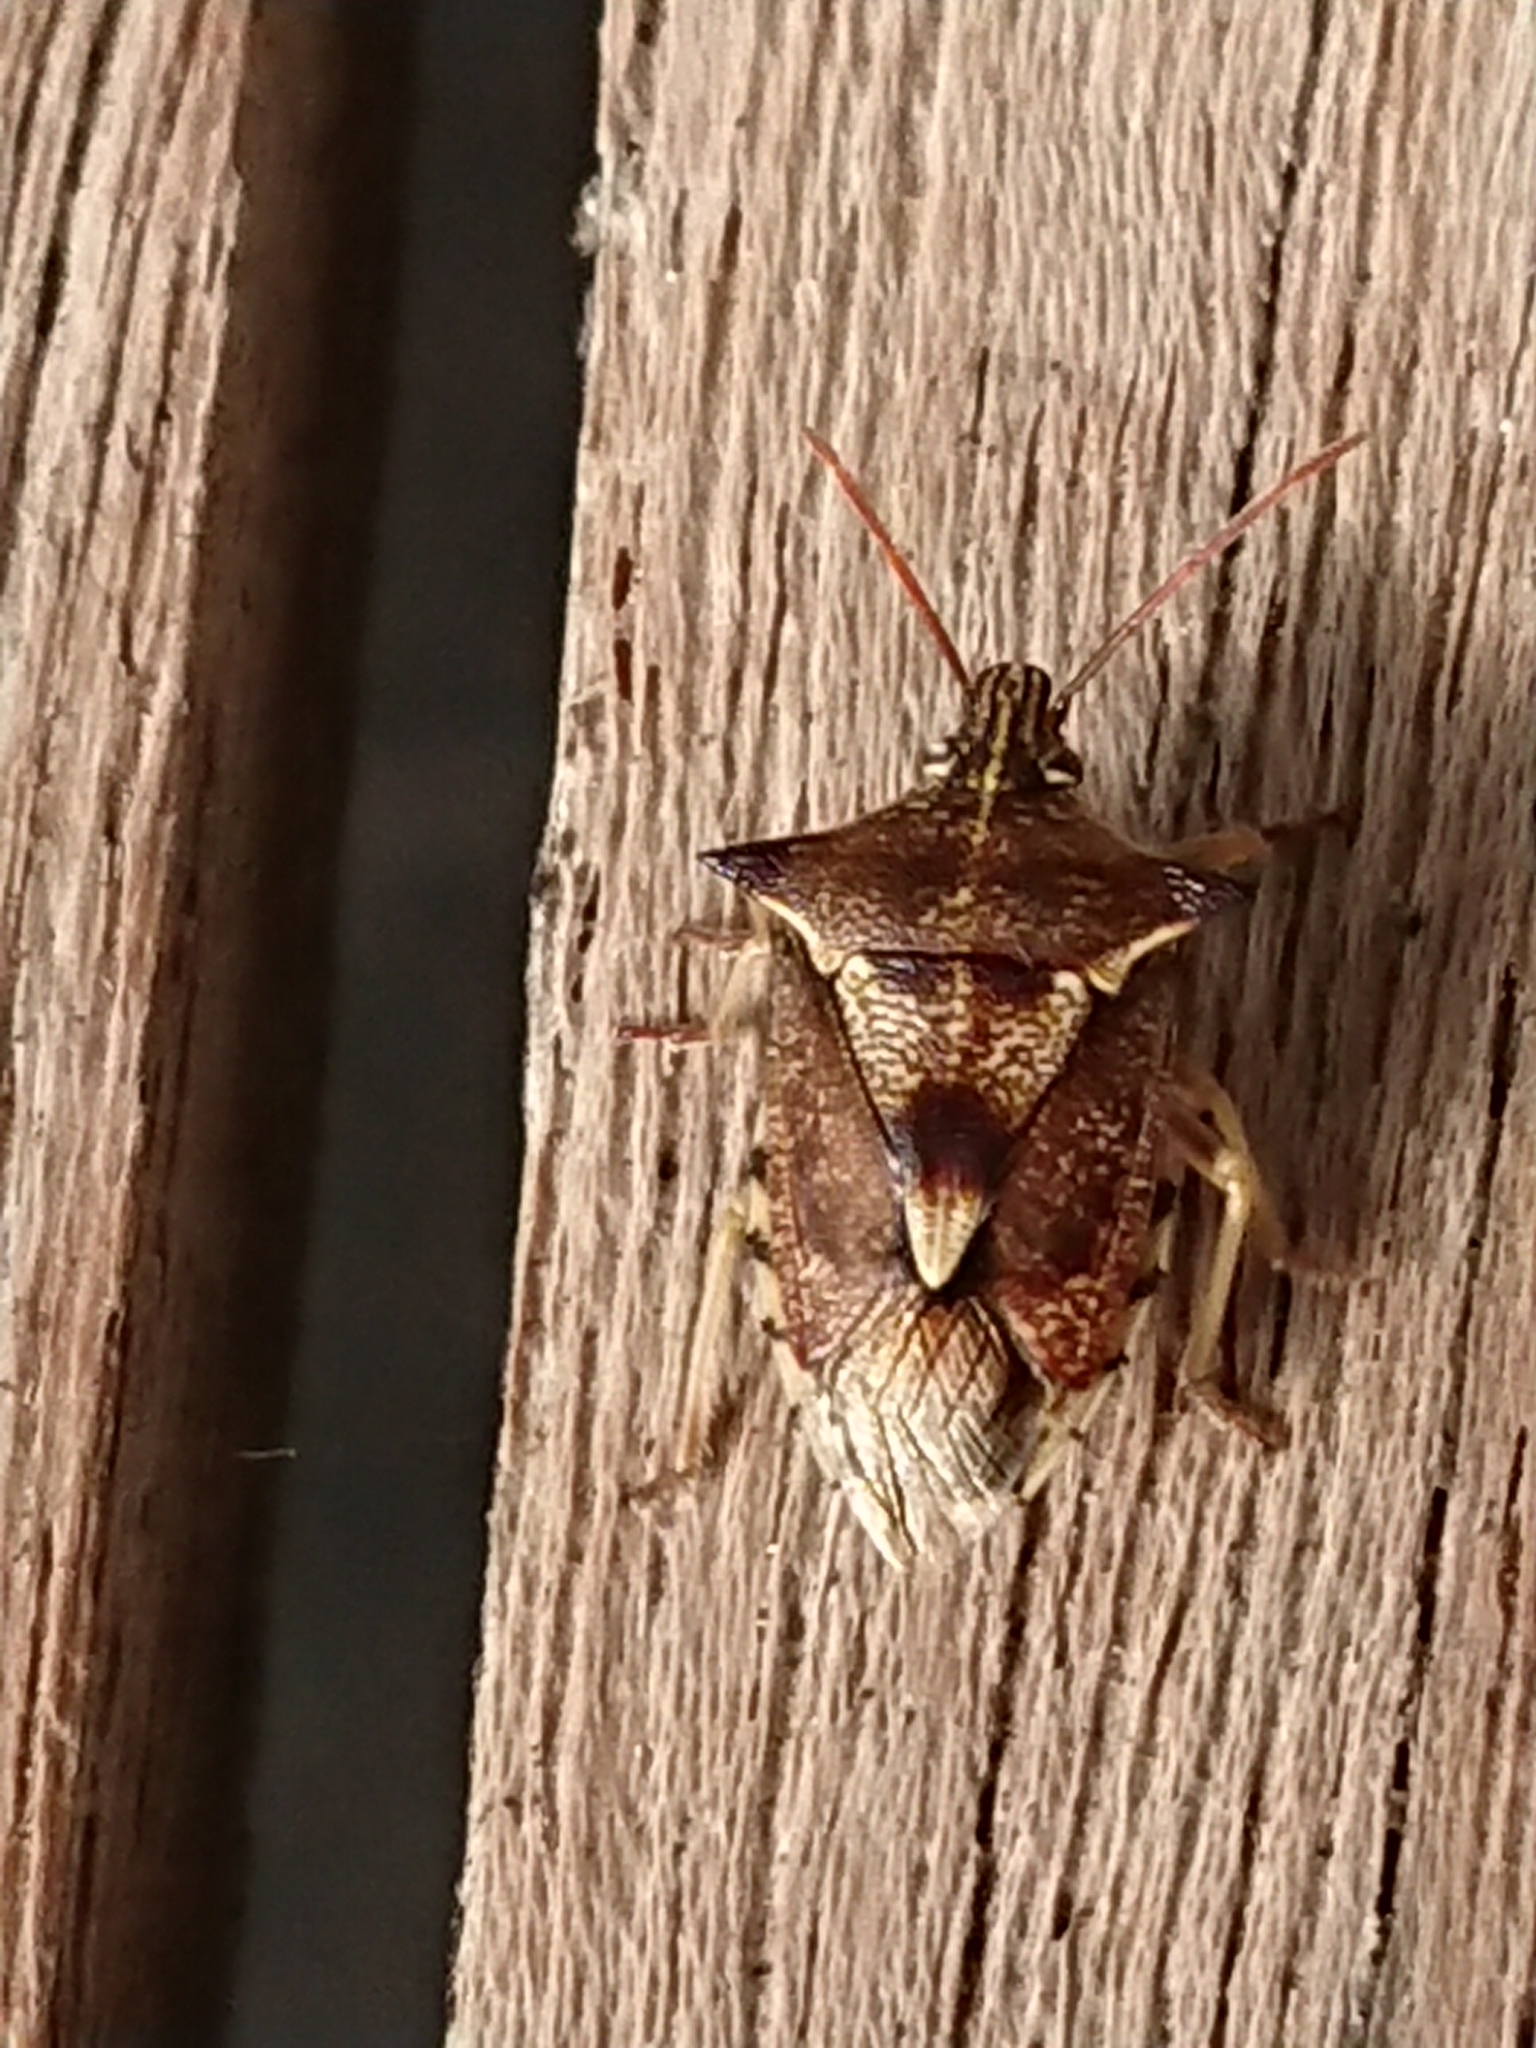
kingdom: Animalia
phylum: Arthropoda
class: Insecta
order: Hemiptera
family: Pentatomidae
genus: Oechalia
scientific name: Oechalia schellenbergii
